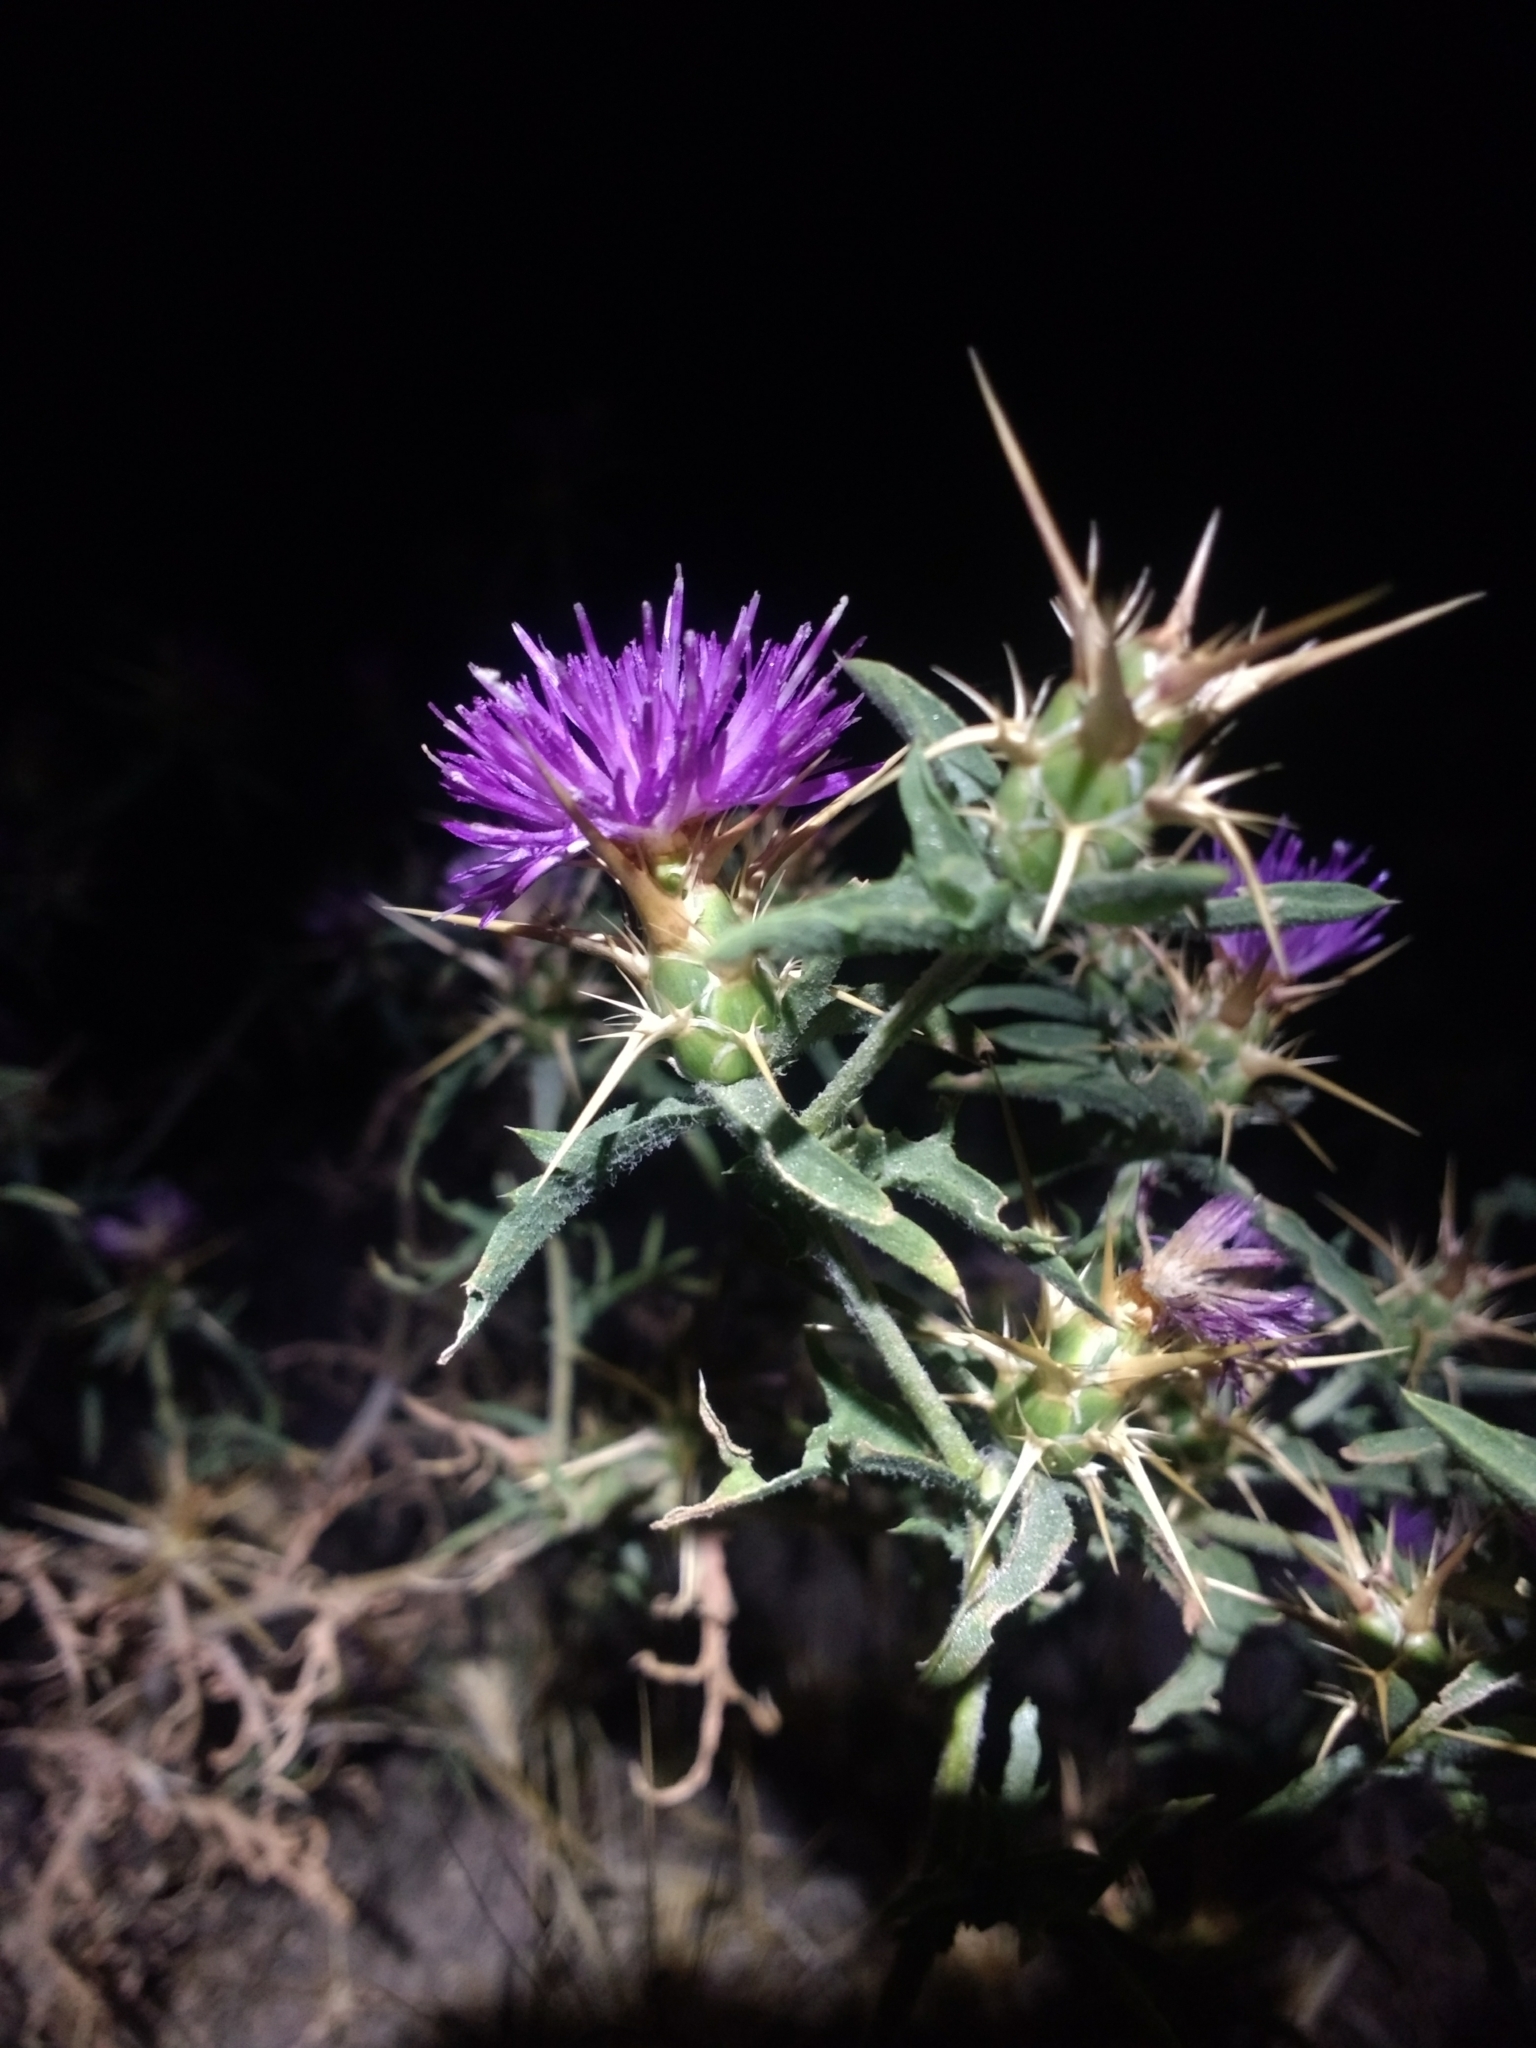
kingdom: Plantae
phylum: Tracheophyta
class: Magnoliopsida
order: Asterales
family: Asteraceae
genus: Centaurea
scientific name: Centaurea calcitrapa
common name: Red star-thistle
